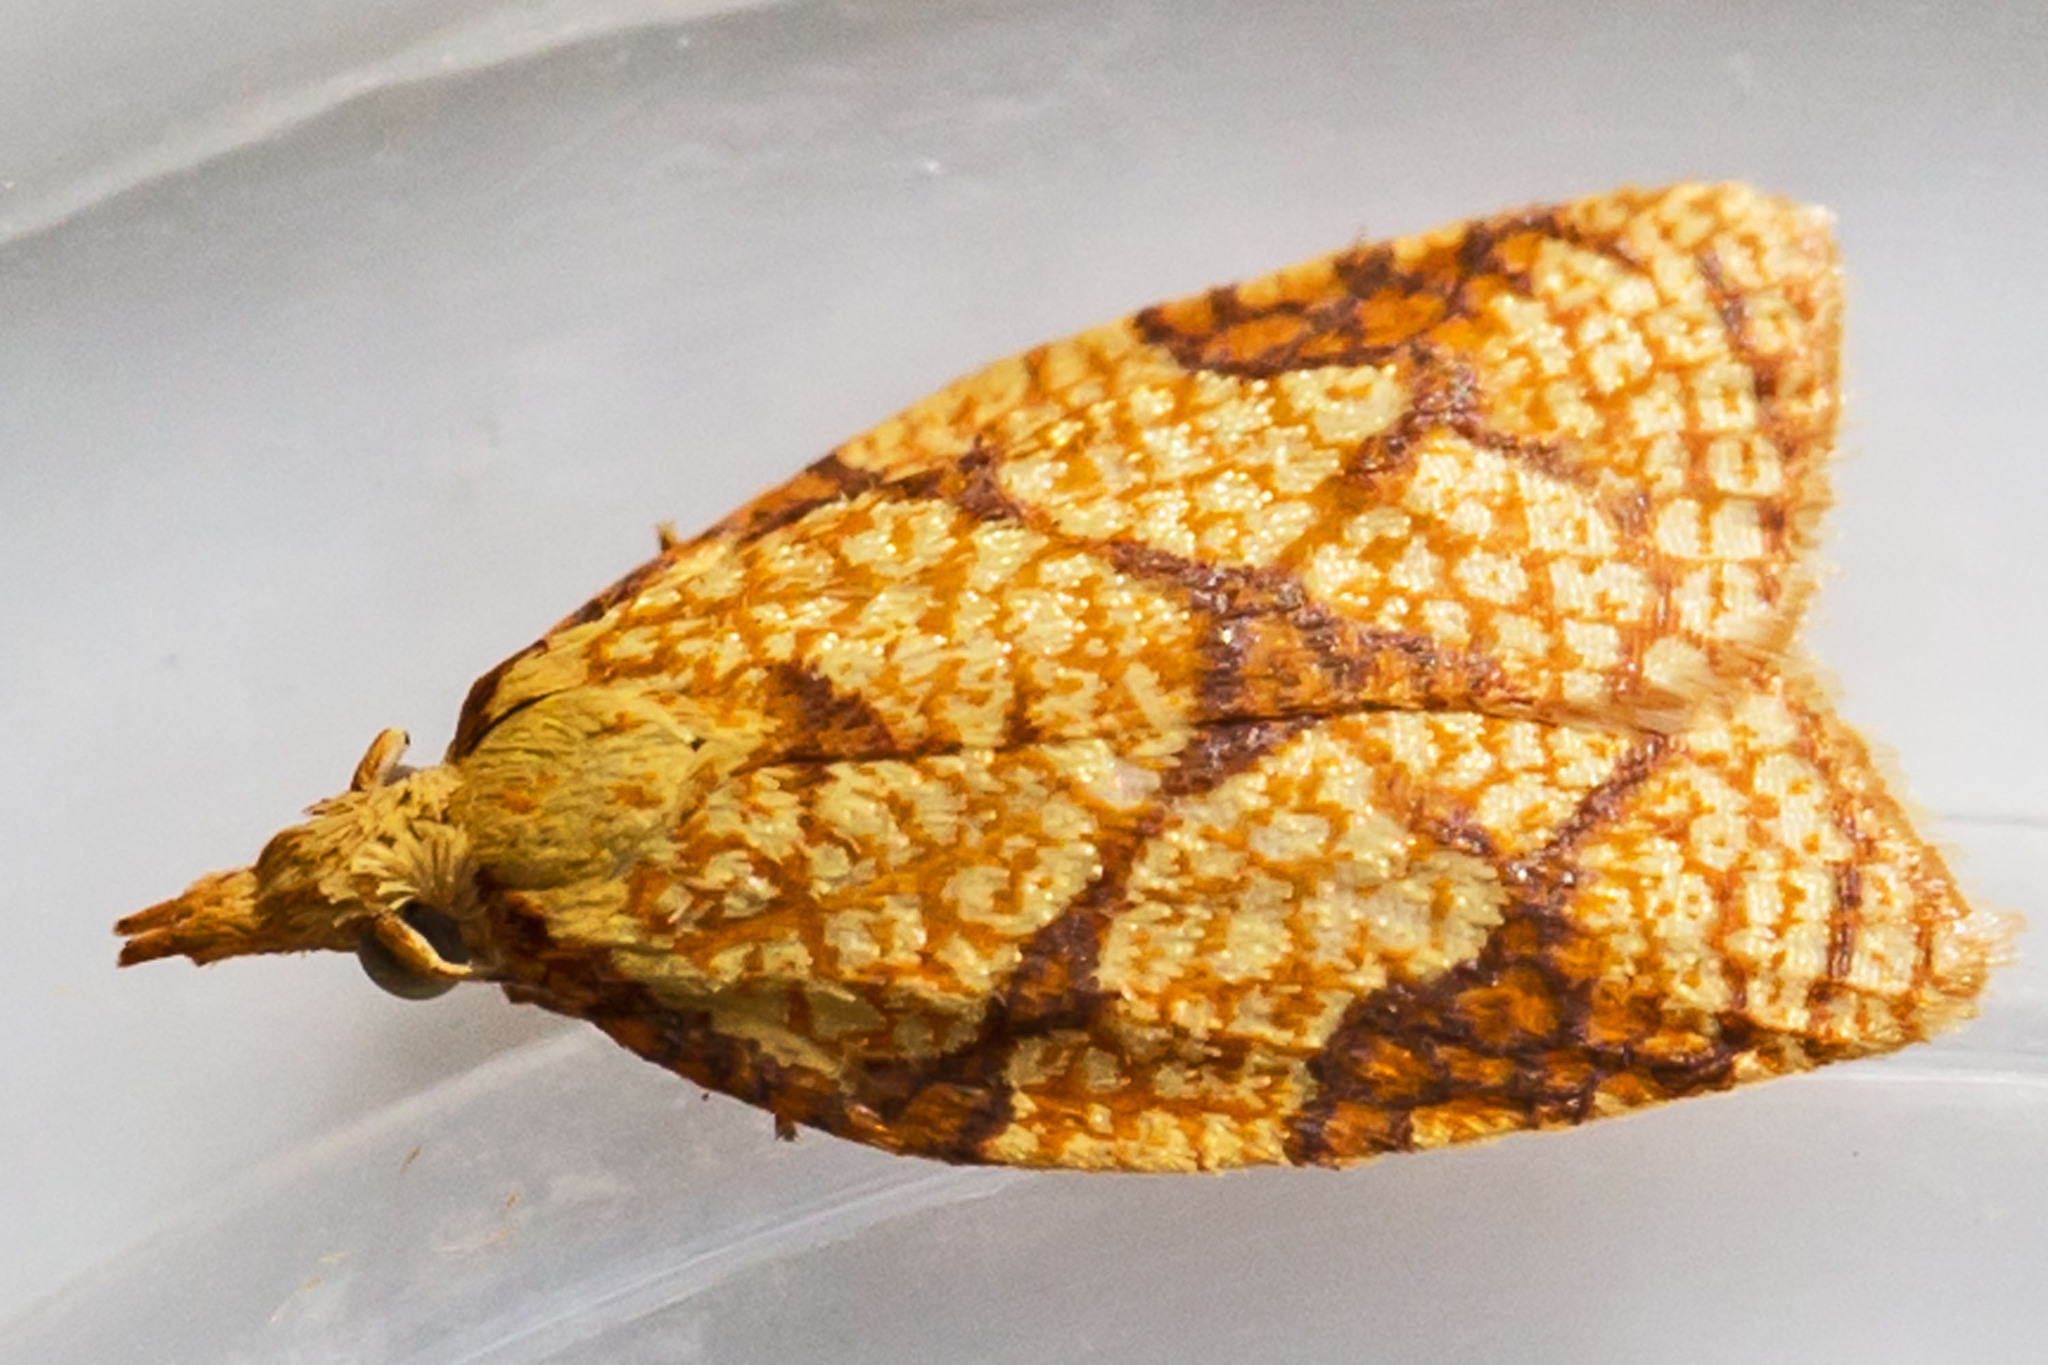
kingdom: Animalia
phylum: Arthropoda
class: Insecta
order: Lepidoptera
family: Tortricidae
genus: Cenopis
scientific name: Cenopis reticulatana
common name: Reticulated fruitworm moth
